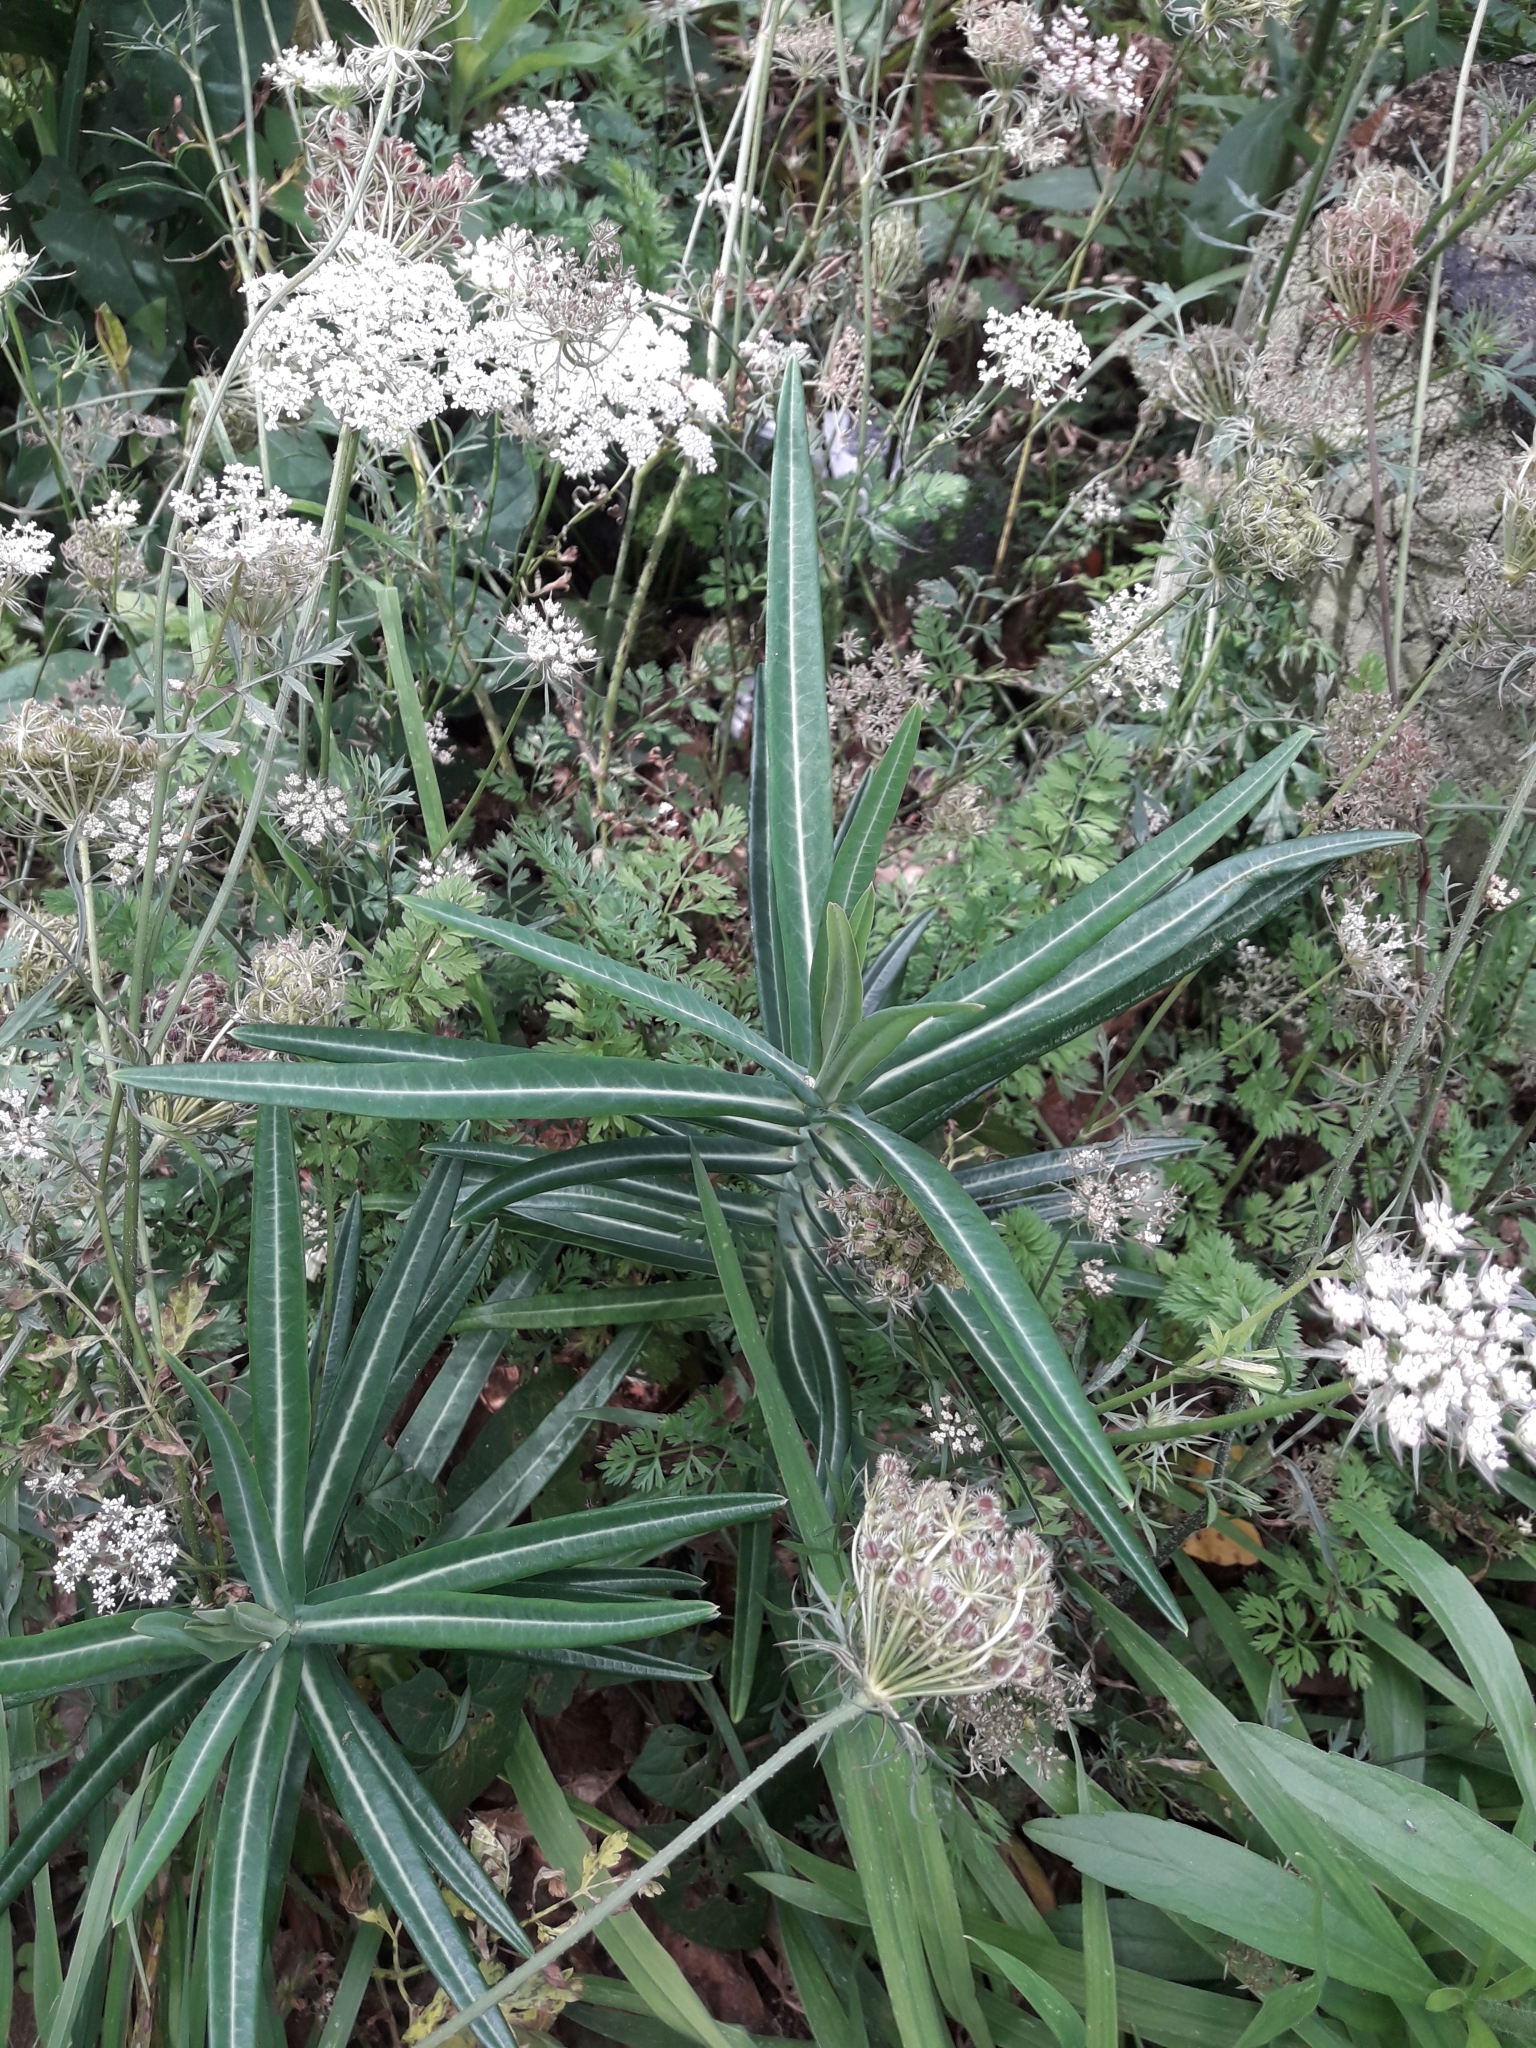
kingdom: Plantae
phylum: Tracheophyta
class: Magnoliopsida
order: Malpighiales
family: Euphorbiaceae
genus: Euphorbia
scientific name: Euphorbia lathyris
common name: Caper spurge
